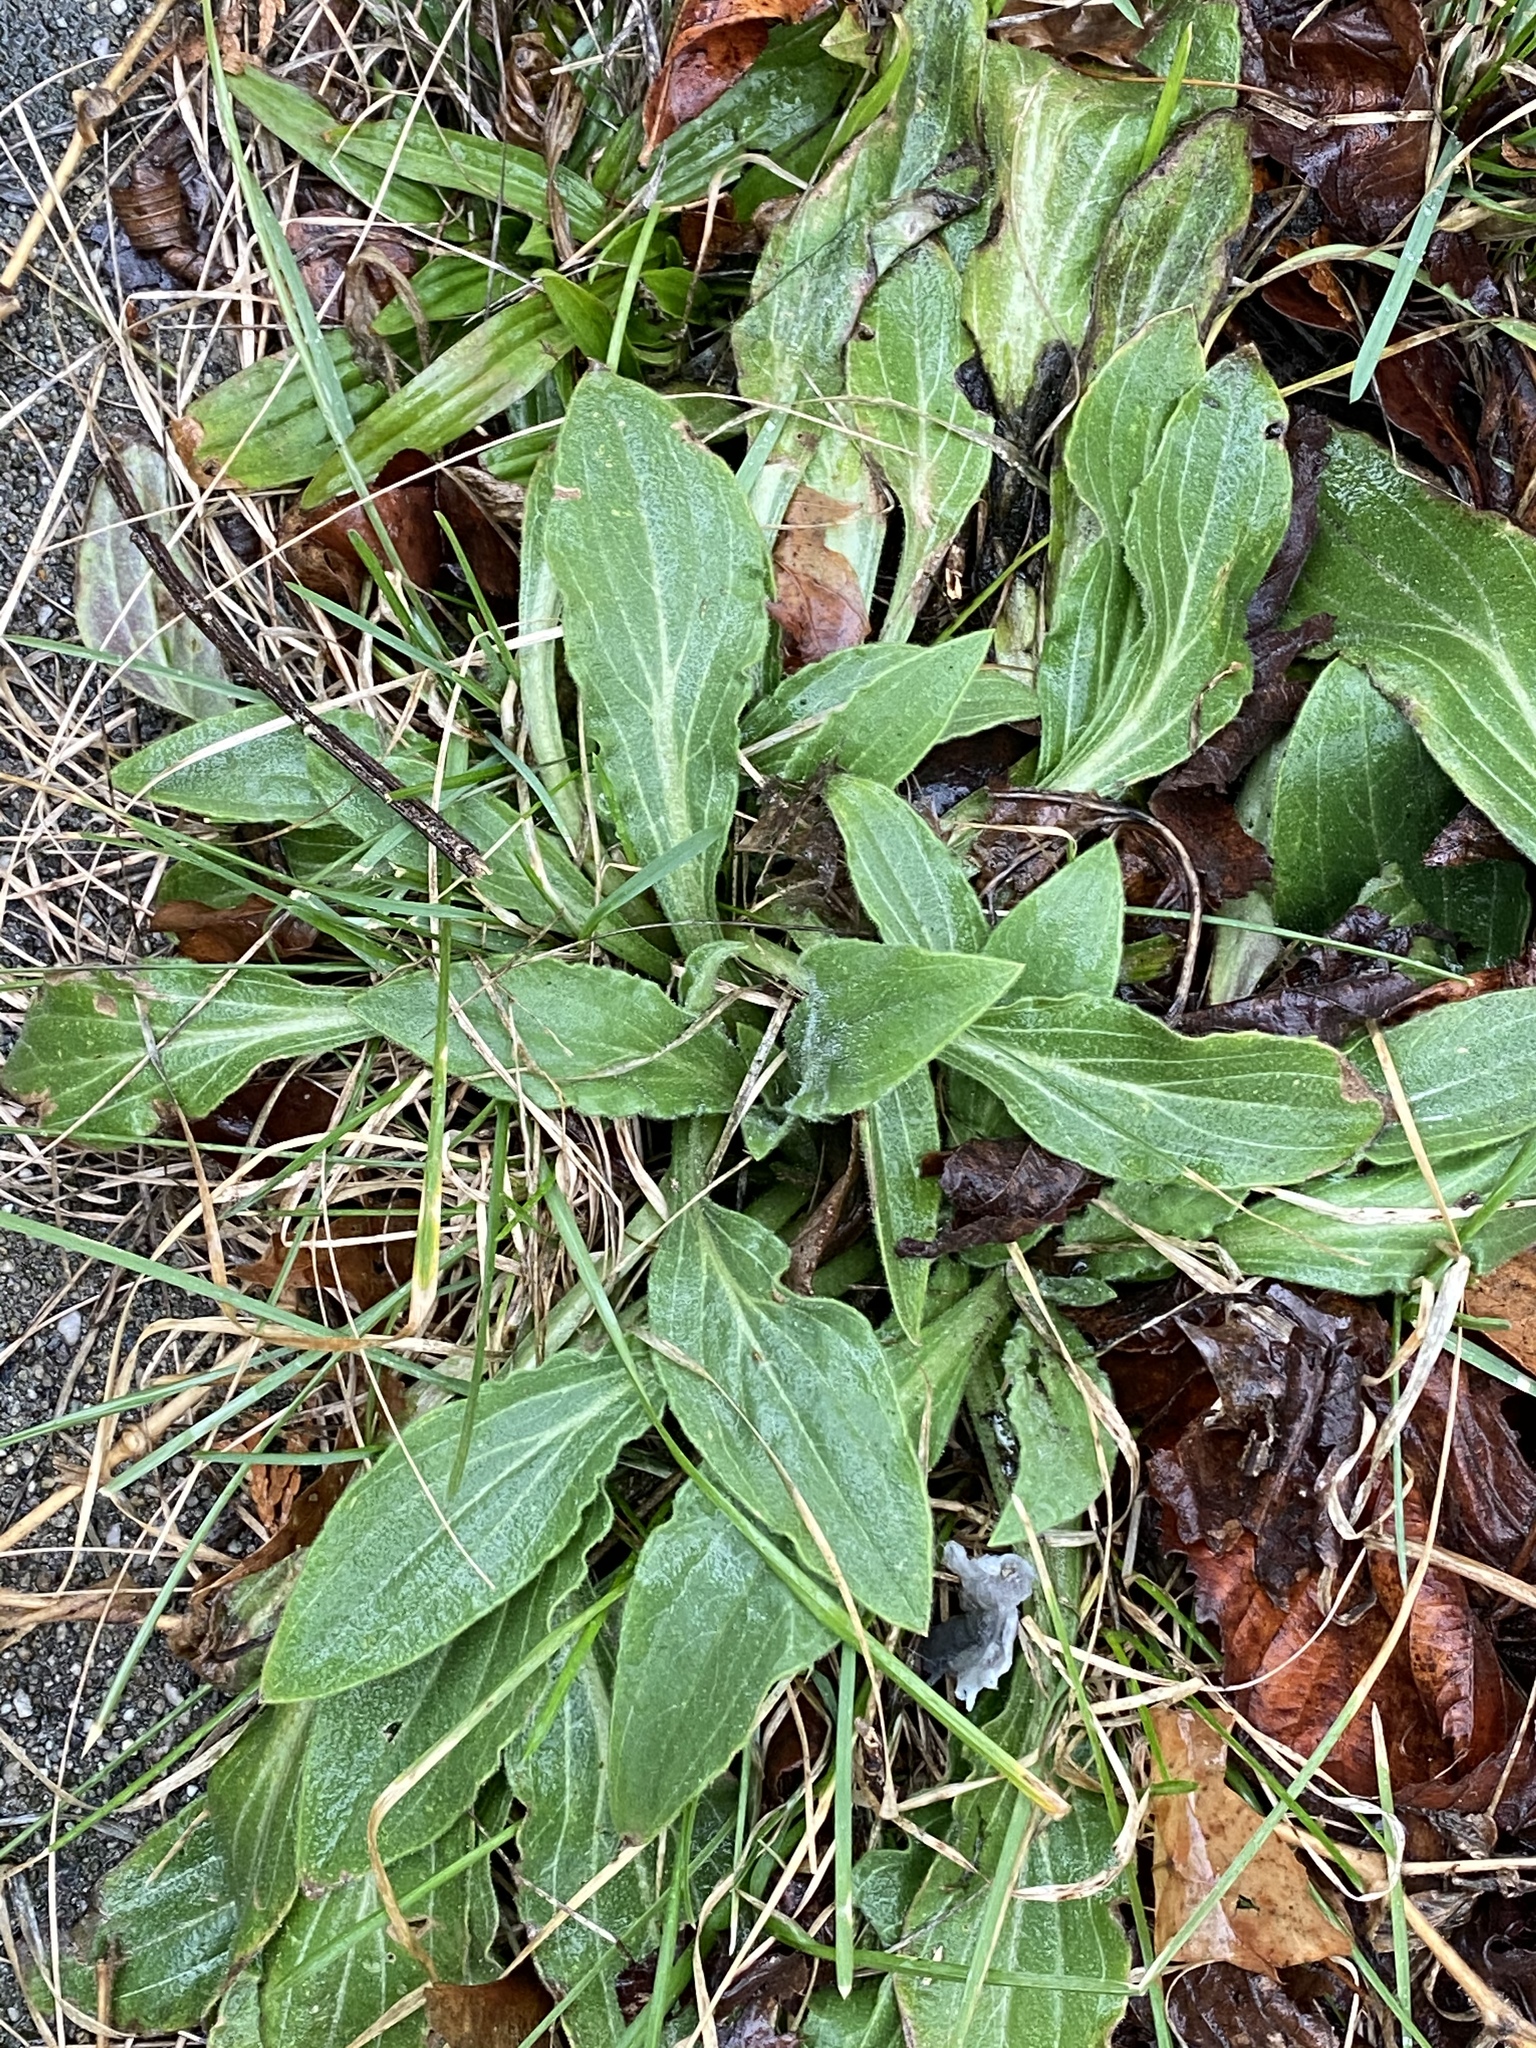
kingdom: Plantae
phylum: Tracheophyta
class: Magnoliopsida
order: Caryophyllales
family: Caryophyllaceae
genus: Silene
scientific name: Silene latifolia
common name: White campion
